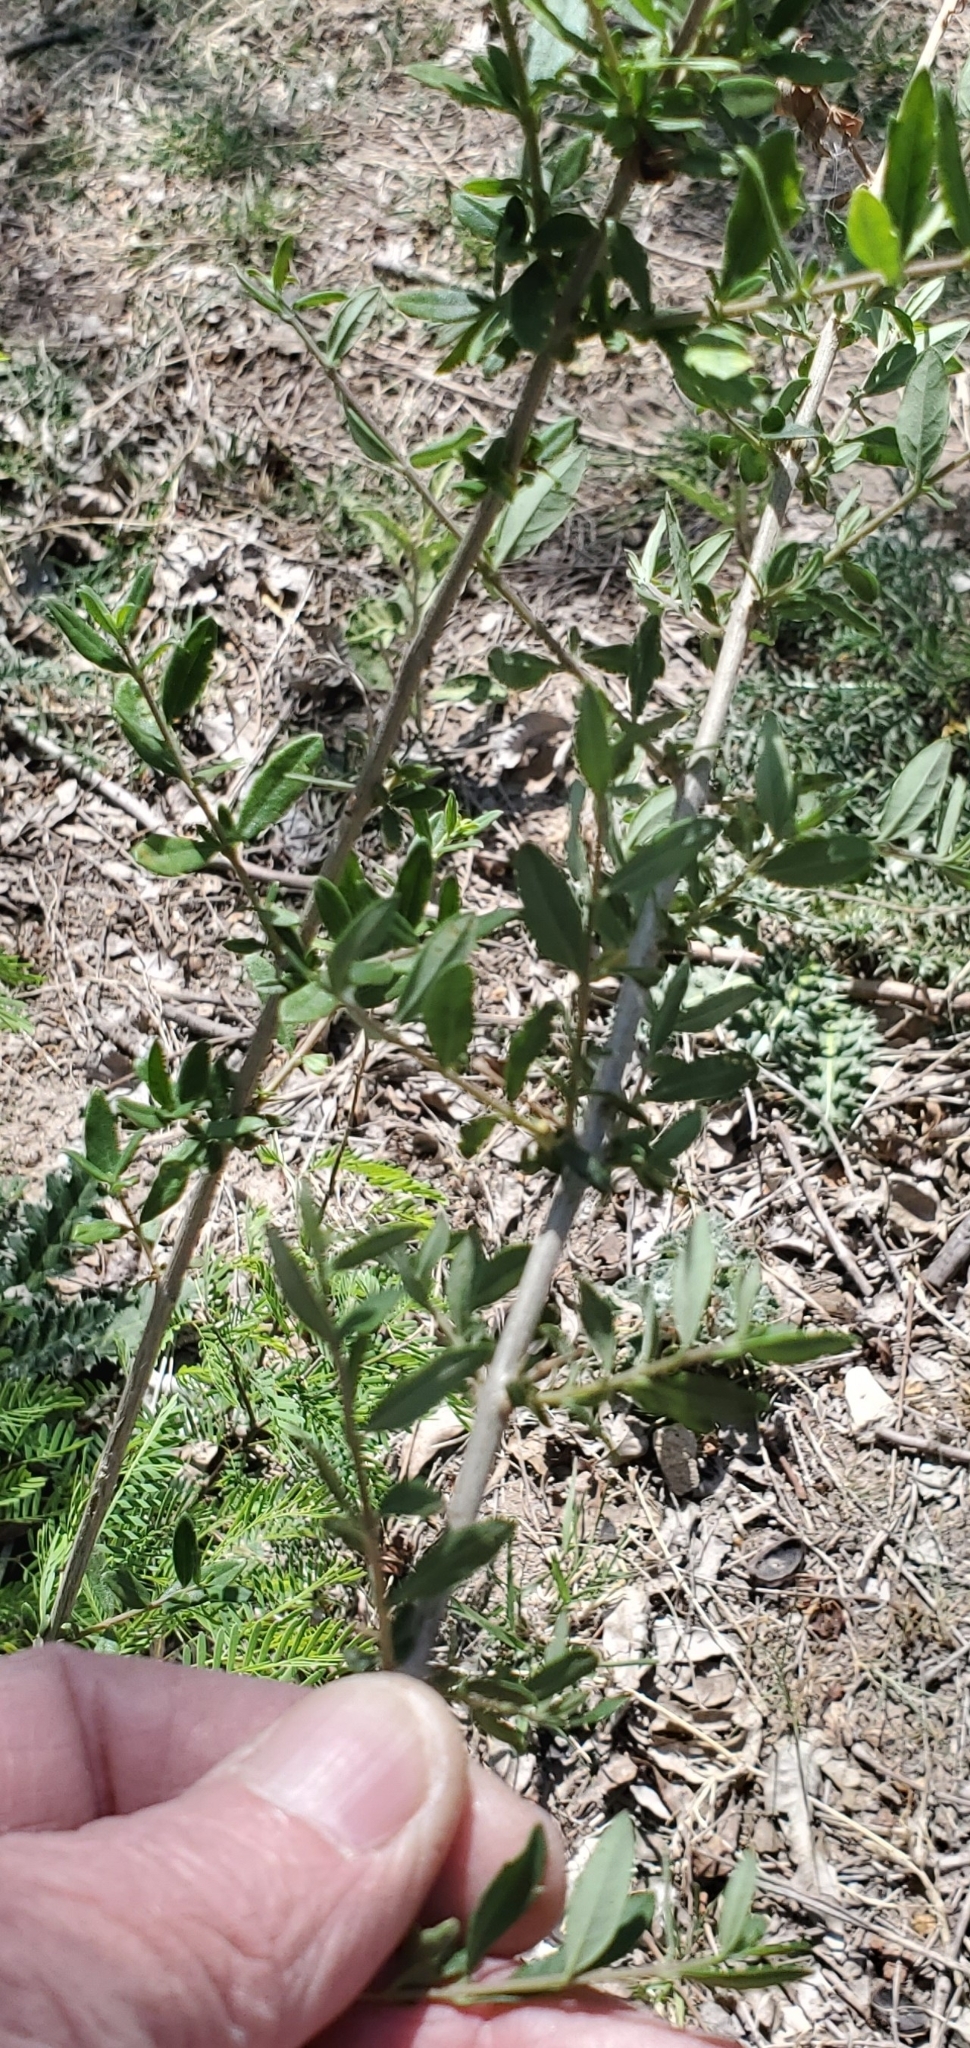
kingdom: Plantae
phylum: Tracheophyta
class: Magnoliopsida
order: Lamiales
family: Verbenaceae
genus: Aloysia
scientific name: Aloysia gratissima
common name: Common bee-brush
